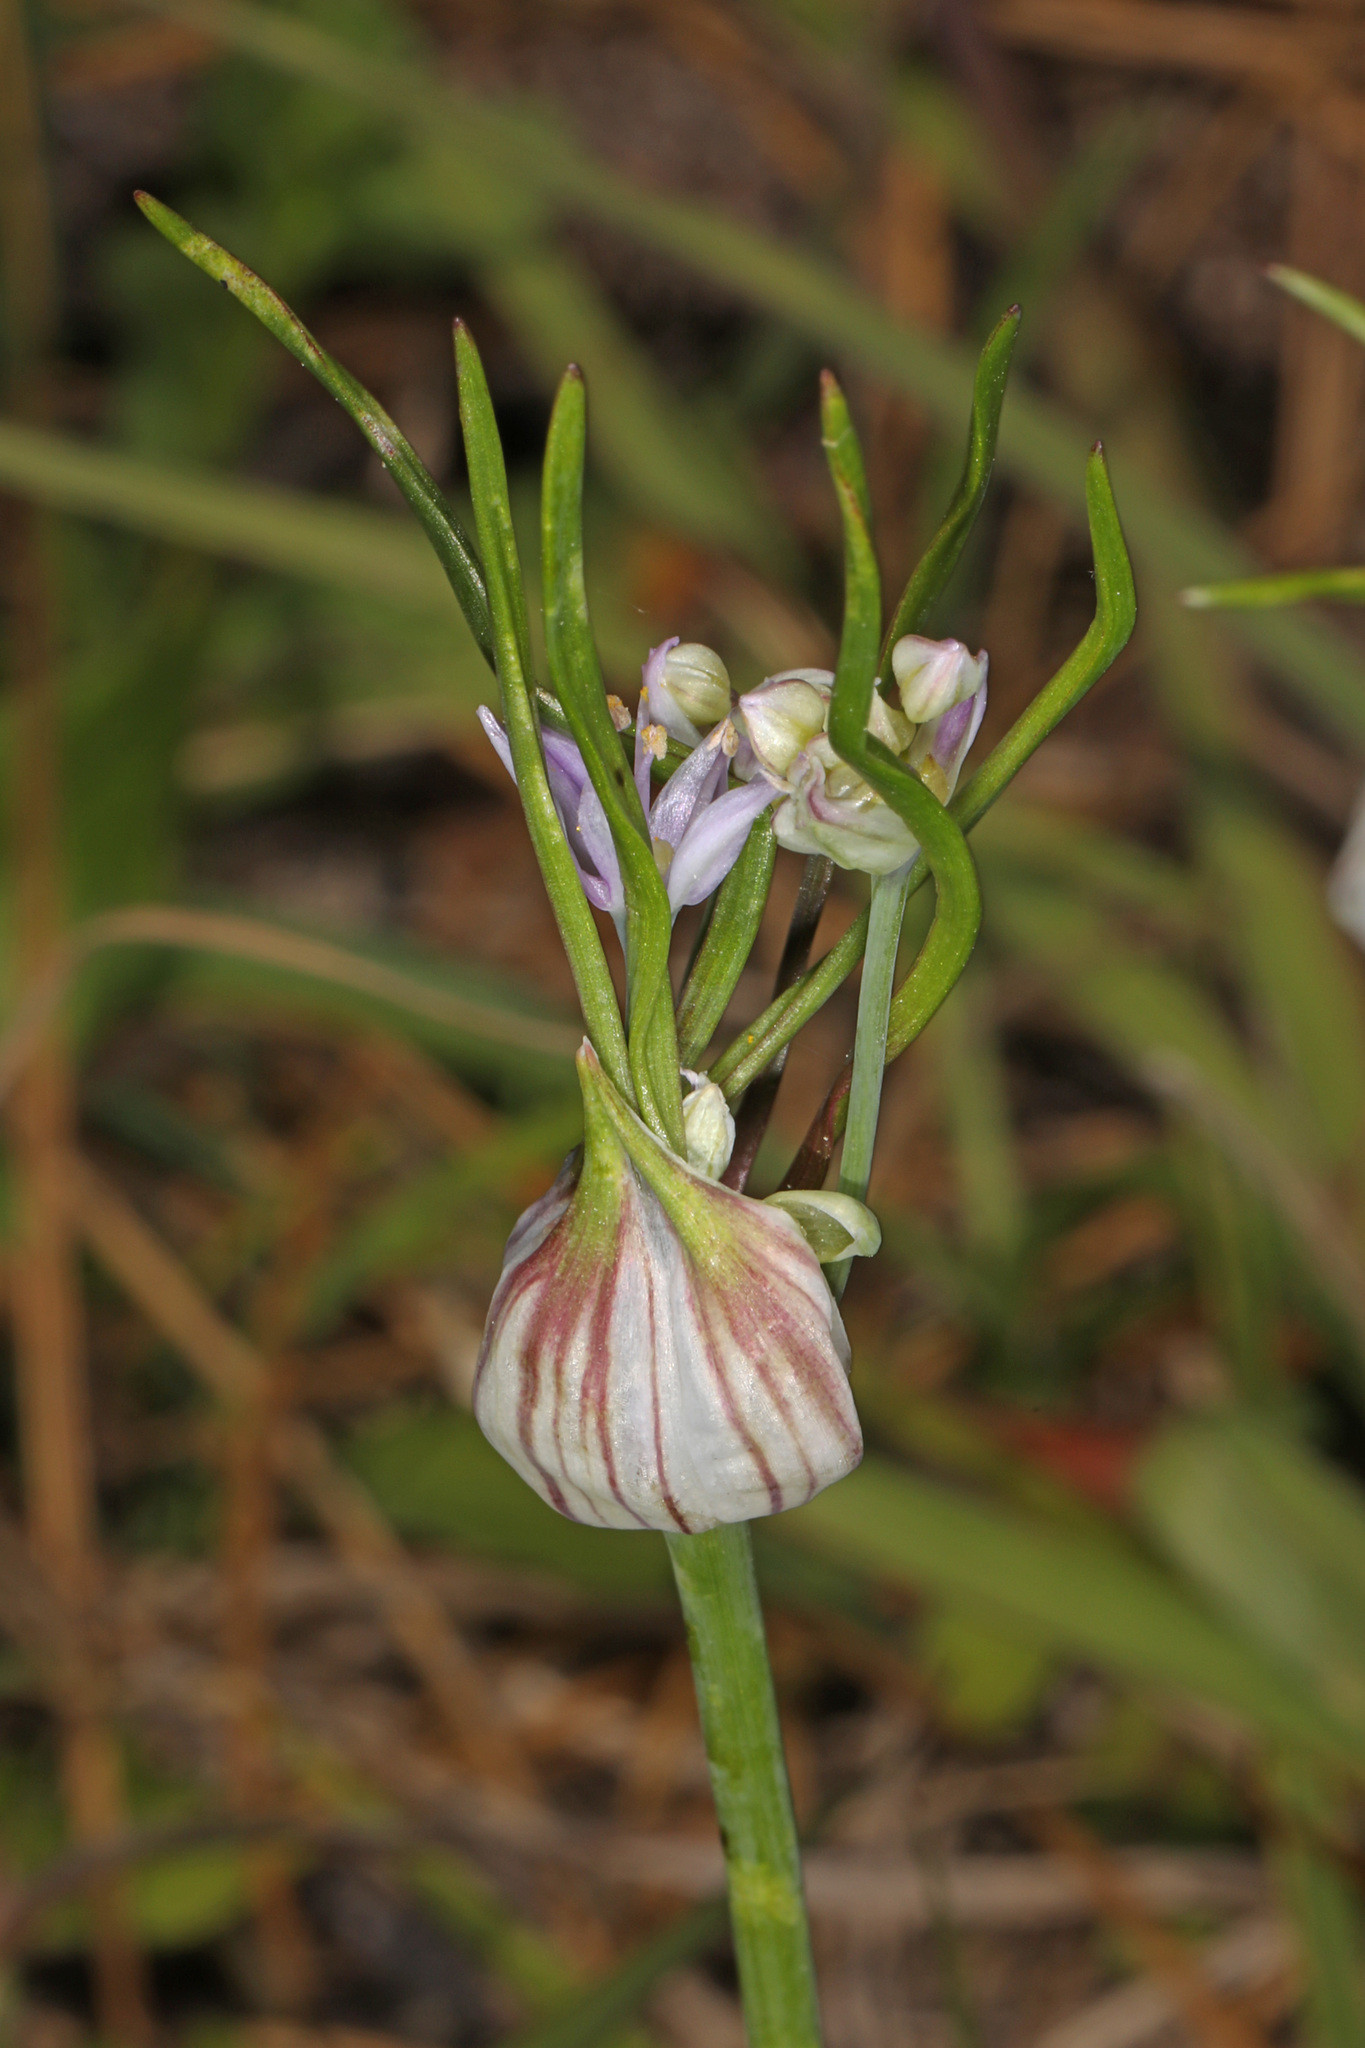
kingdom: Plantae
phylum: Tracheophyta
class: Liliopsida
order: Asparagales
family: Amaryllidaceae
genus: Allium
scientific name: Allium canadense
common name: Meadow garlic
